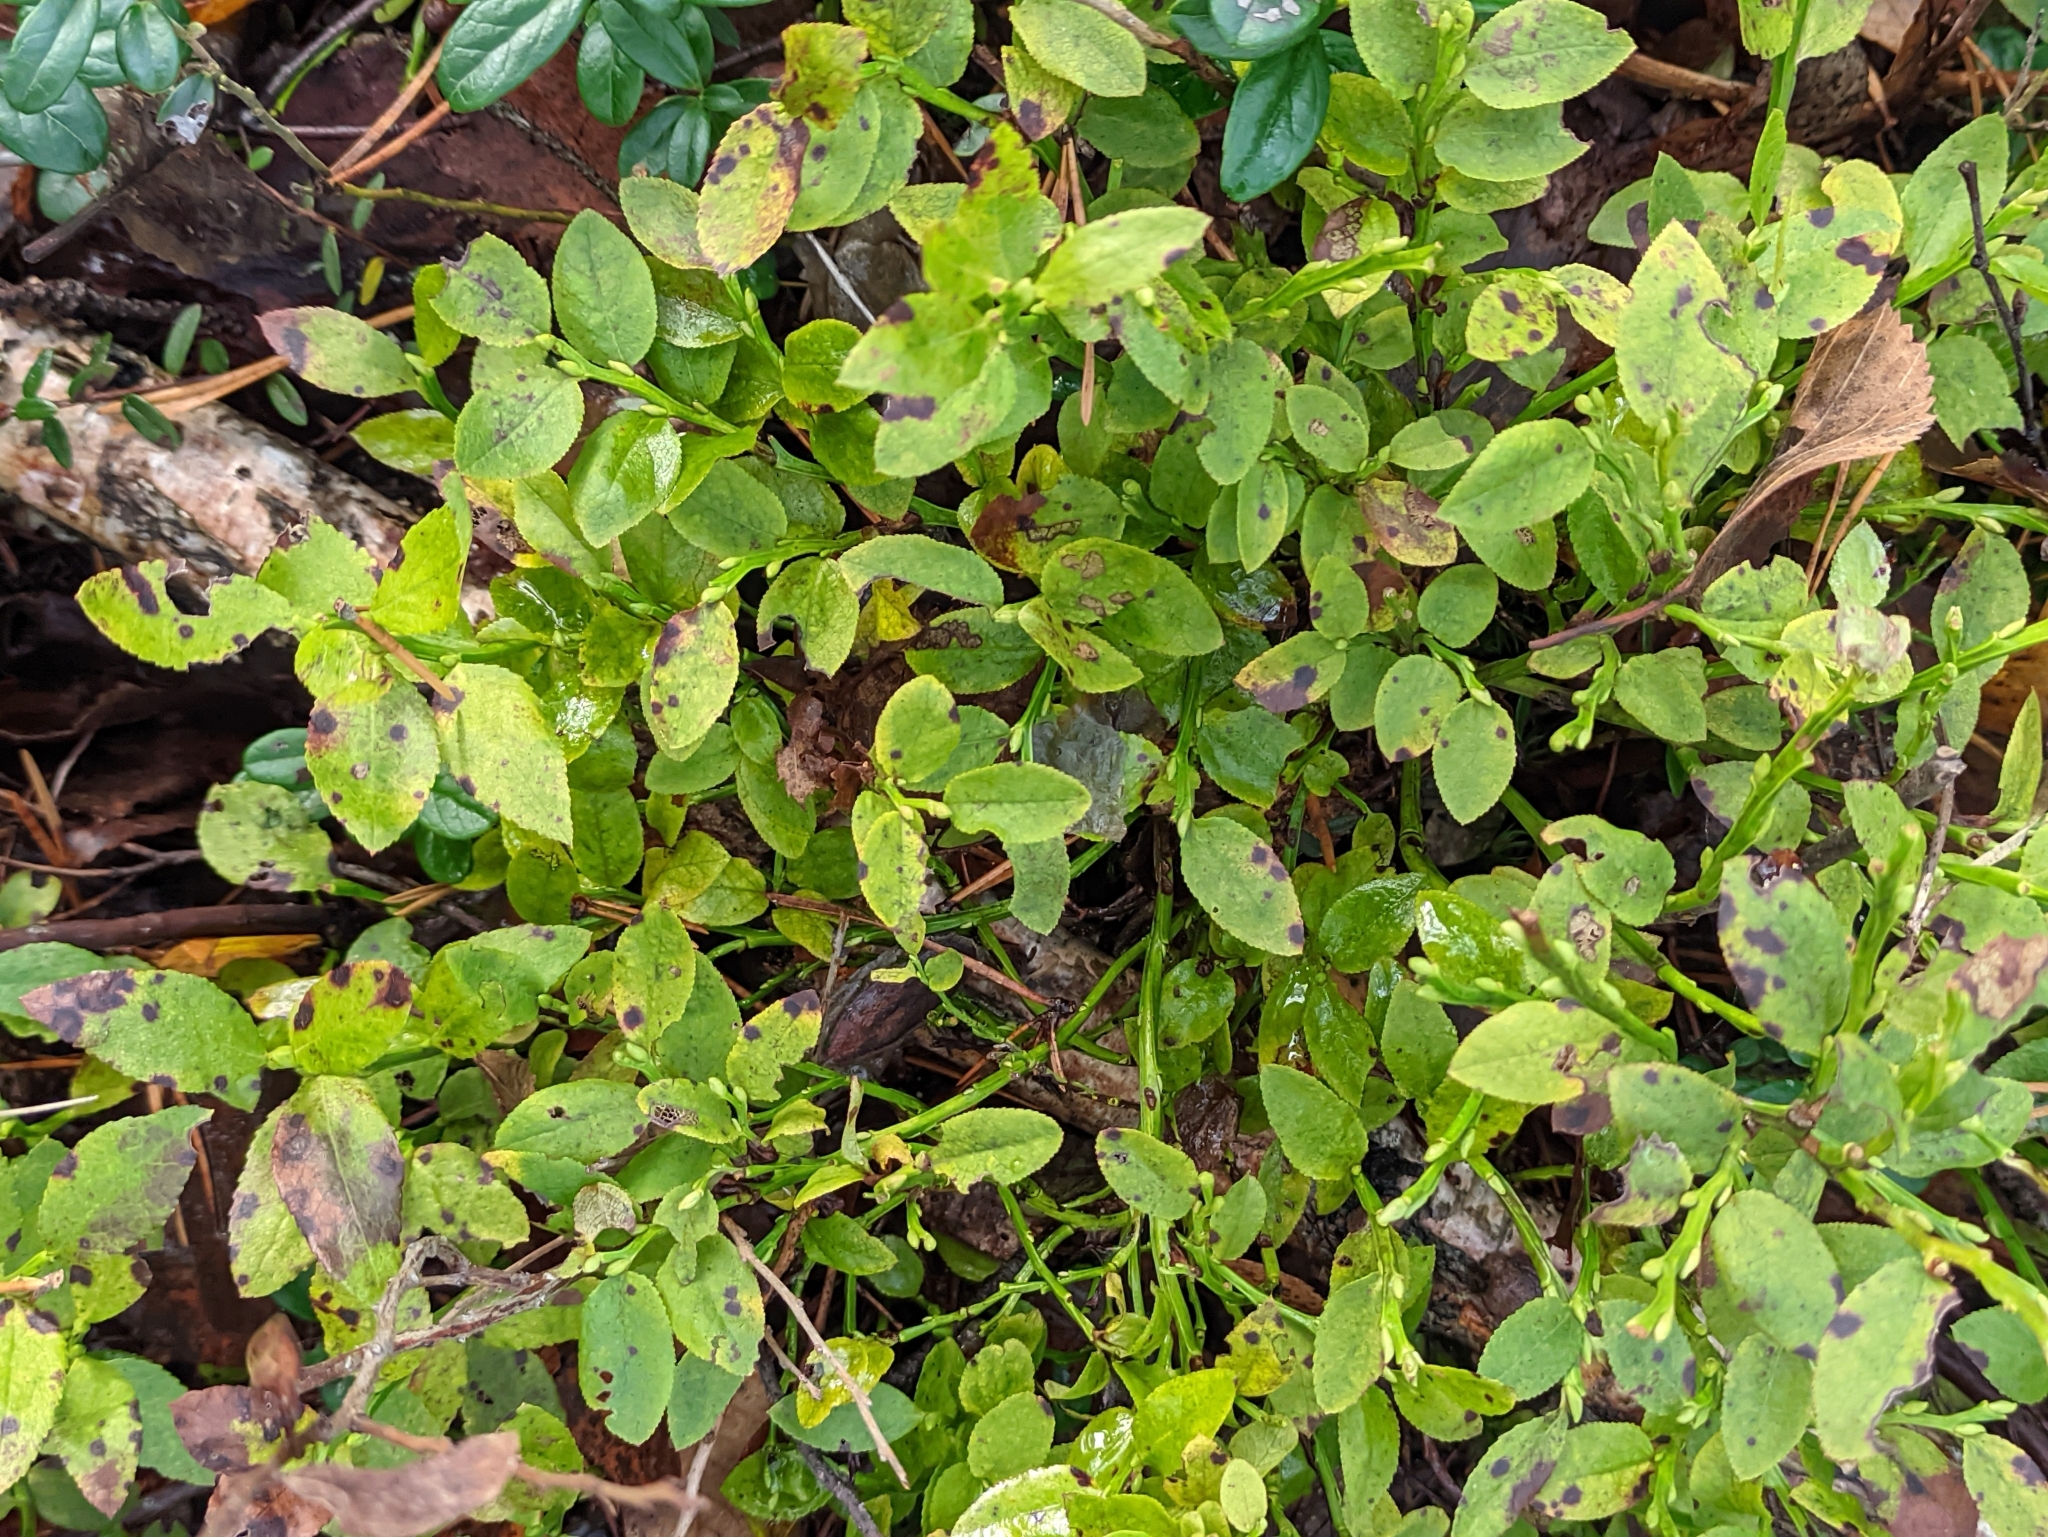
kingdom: Plantae
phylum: Tracheophyta
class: Magnoliopsida
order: Ericales
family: Ericaceae
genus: Vaccinium
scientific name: Vaccinium myrtillus
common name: Bilberry
